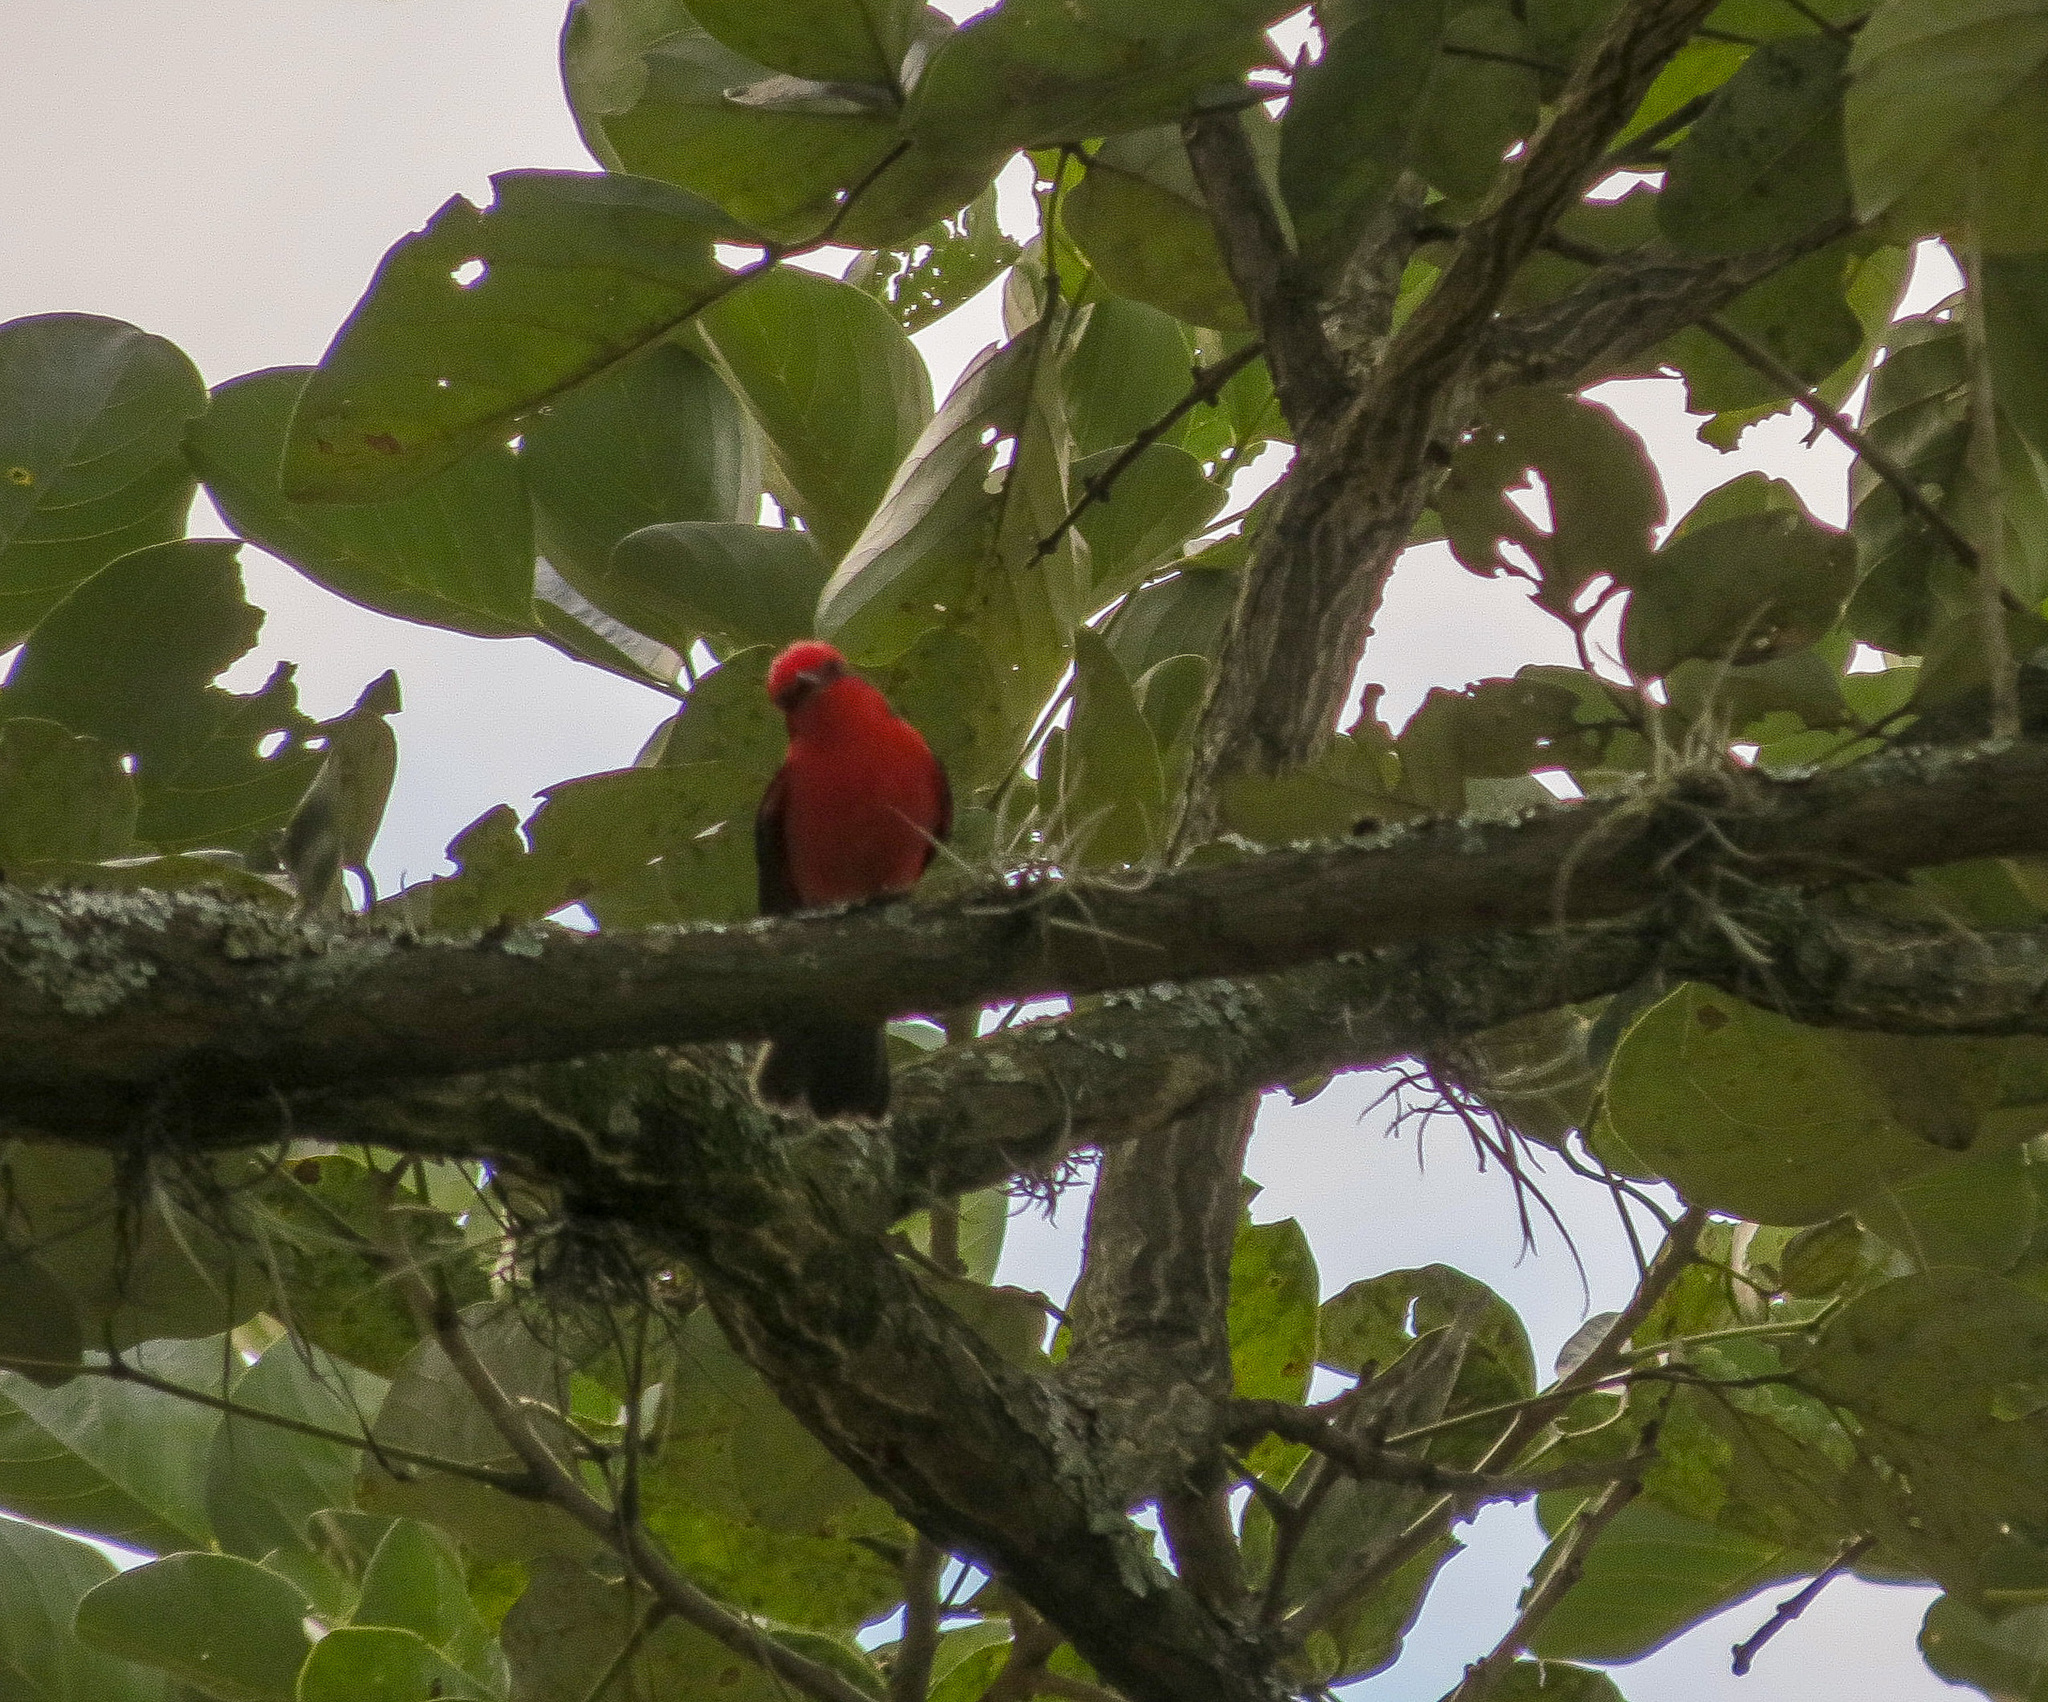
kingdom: Animalia
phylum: Chordata
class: Aves
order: Passeriformes
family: Tyrannidae
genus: Pyrocephalus
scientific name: Pyrocephalus rubinus
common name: Vermilion flycatcher
